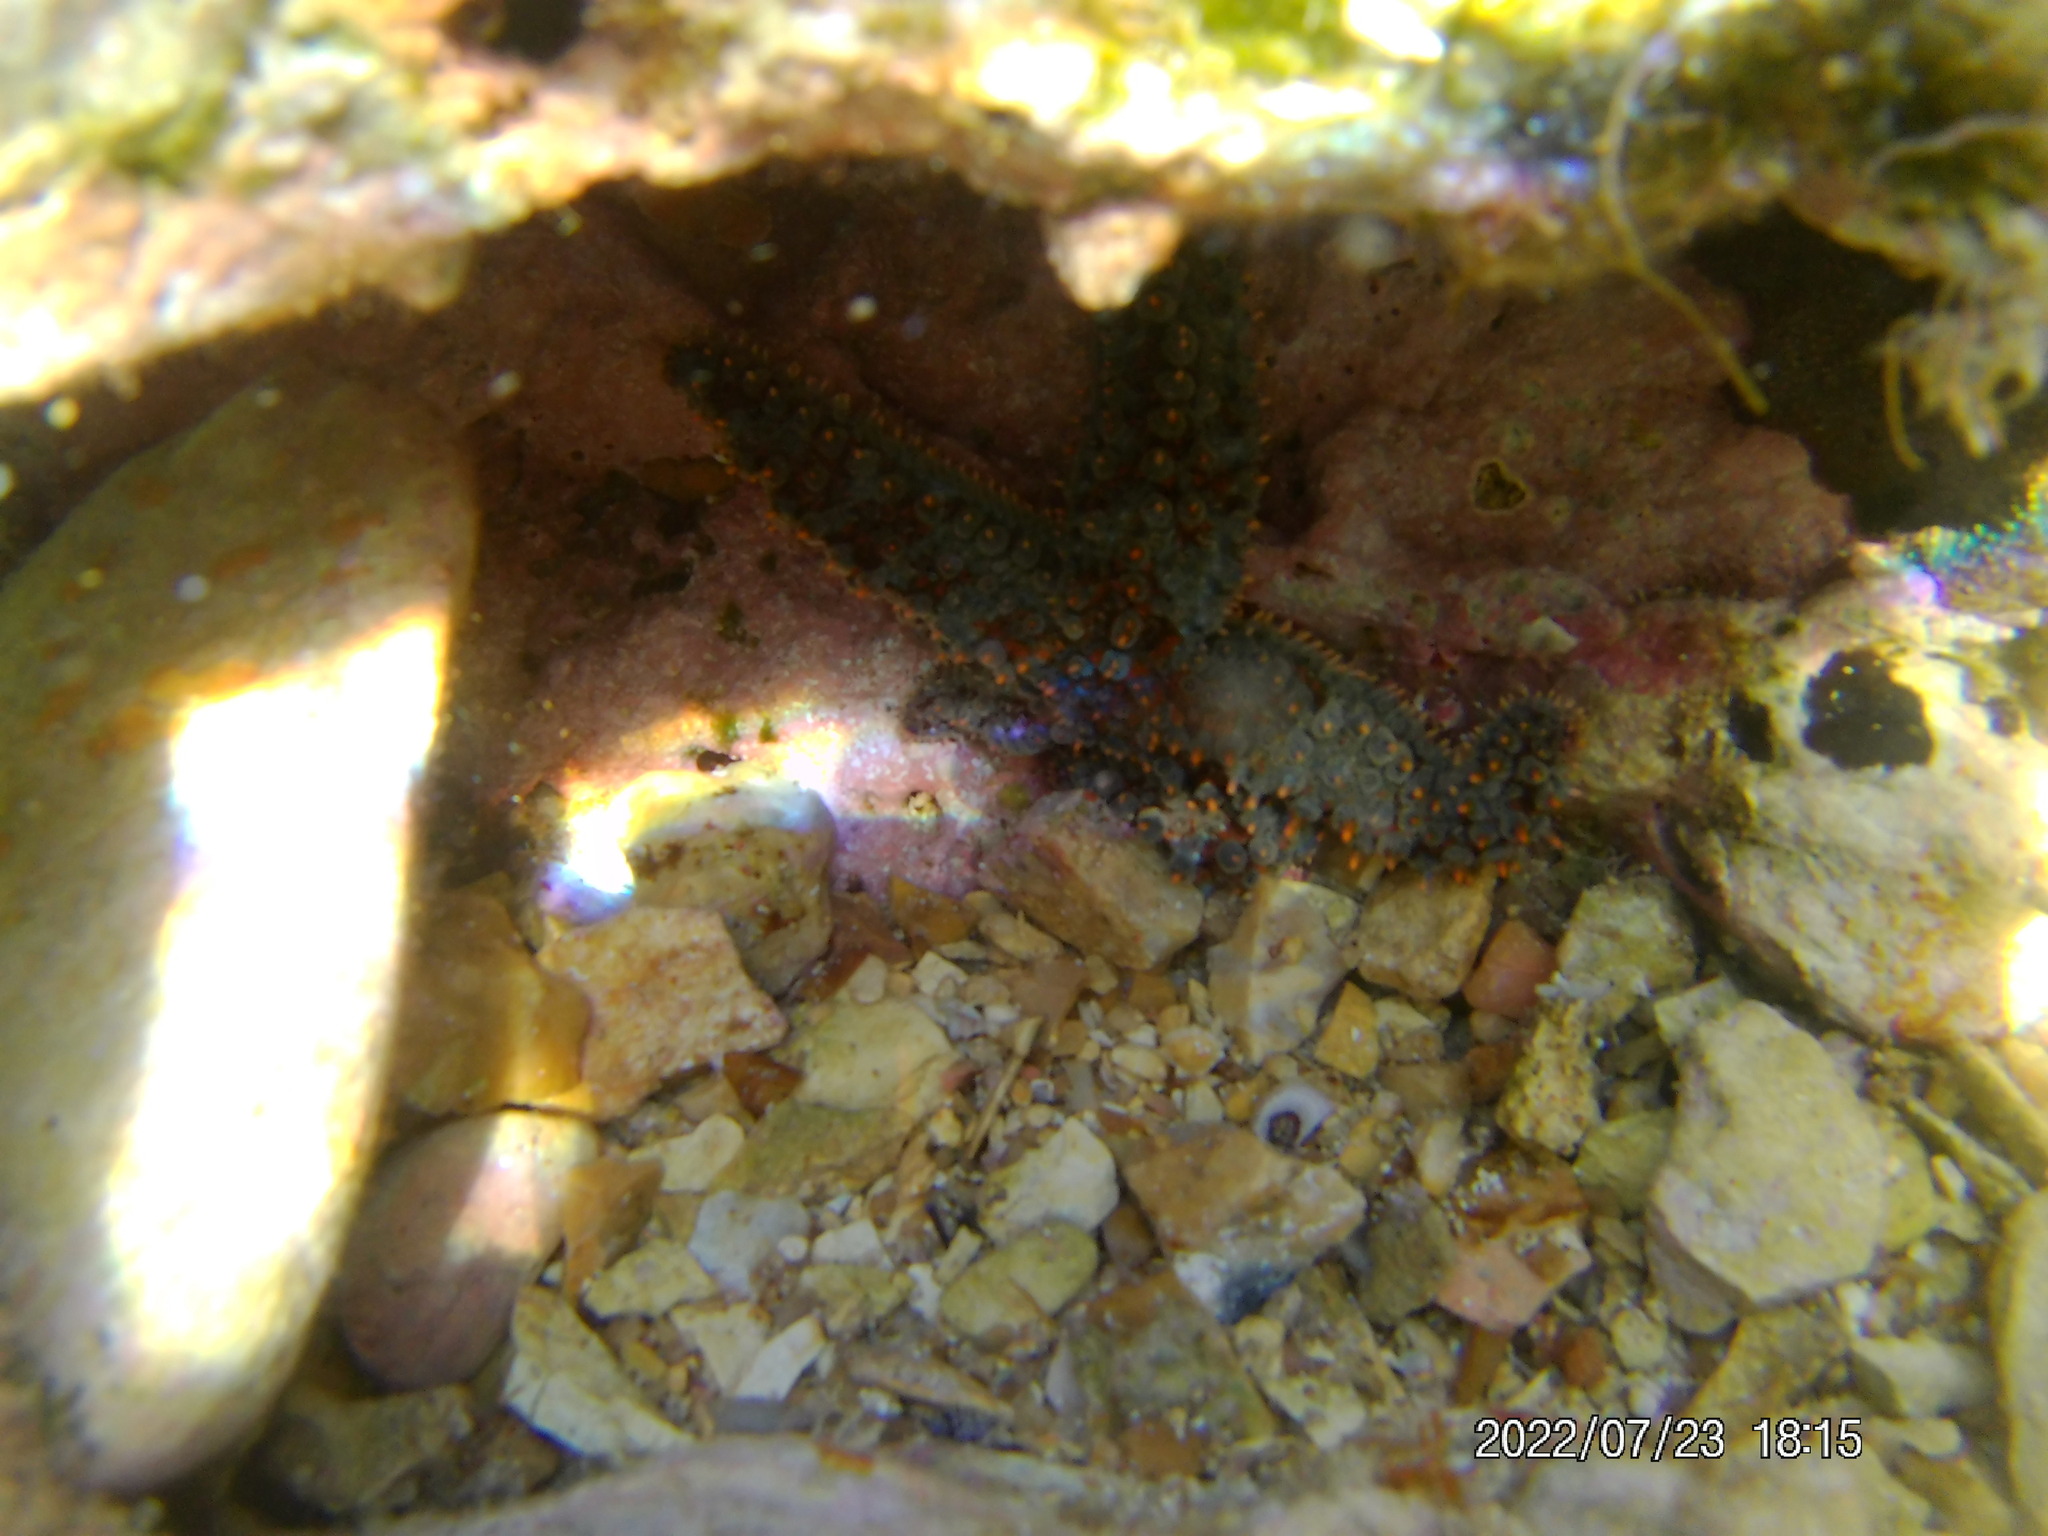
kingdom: Animalia
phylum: Echinodermata
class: Asteroidea
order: Forcipulatida
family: Asteriidae
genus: Marthasterias
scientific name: Marthasterias glacialis
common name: Spiny starfish
